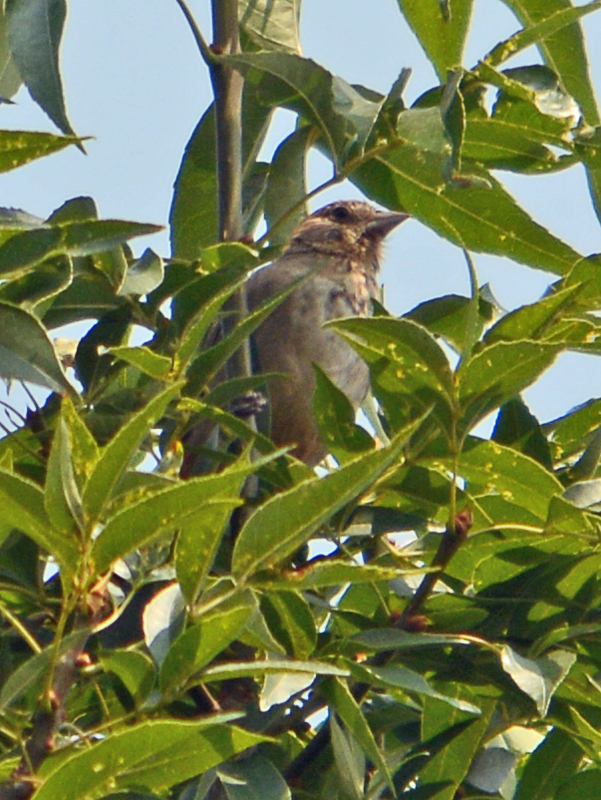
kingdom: Animalia
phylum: Chordata
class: Aves
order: Passeriformes
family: Passerellidae
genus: Melozone
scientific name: Melozone fusca
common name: Canyon towhee
